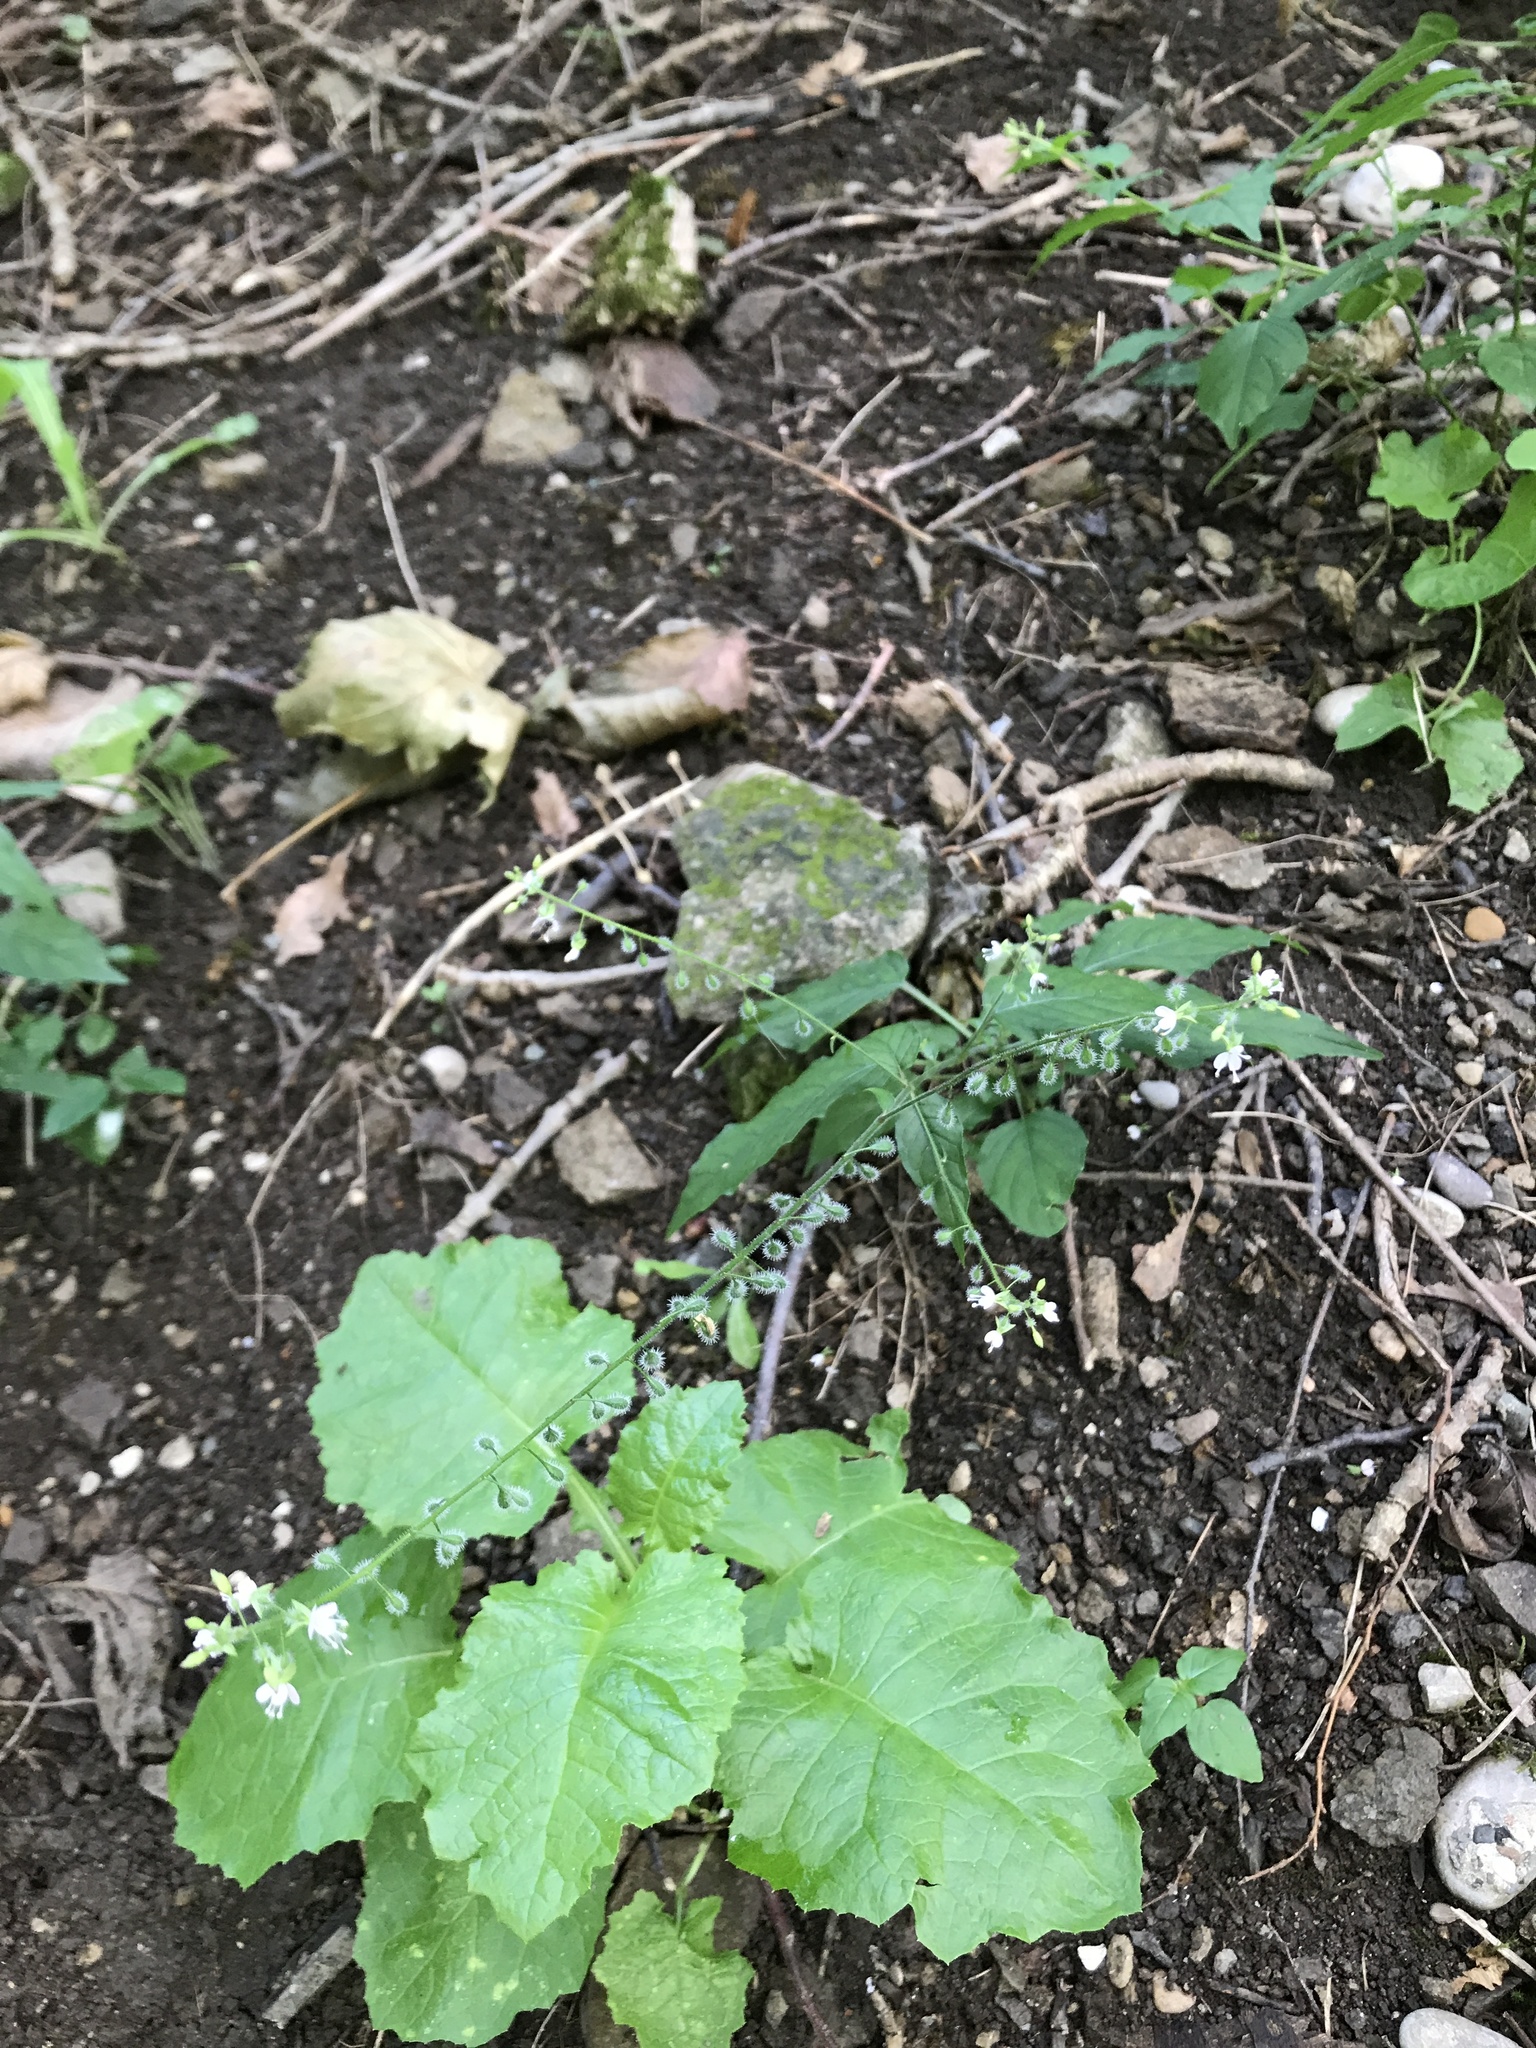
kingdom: Plantae
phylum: Tracheophyta
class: Magnoliopsida
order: Myrtales
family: Onagraceae
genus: Circaea
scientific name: Circaea lutetiana
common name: Enchanter's-nightshade
